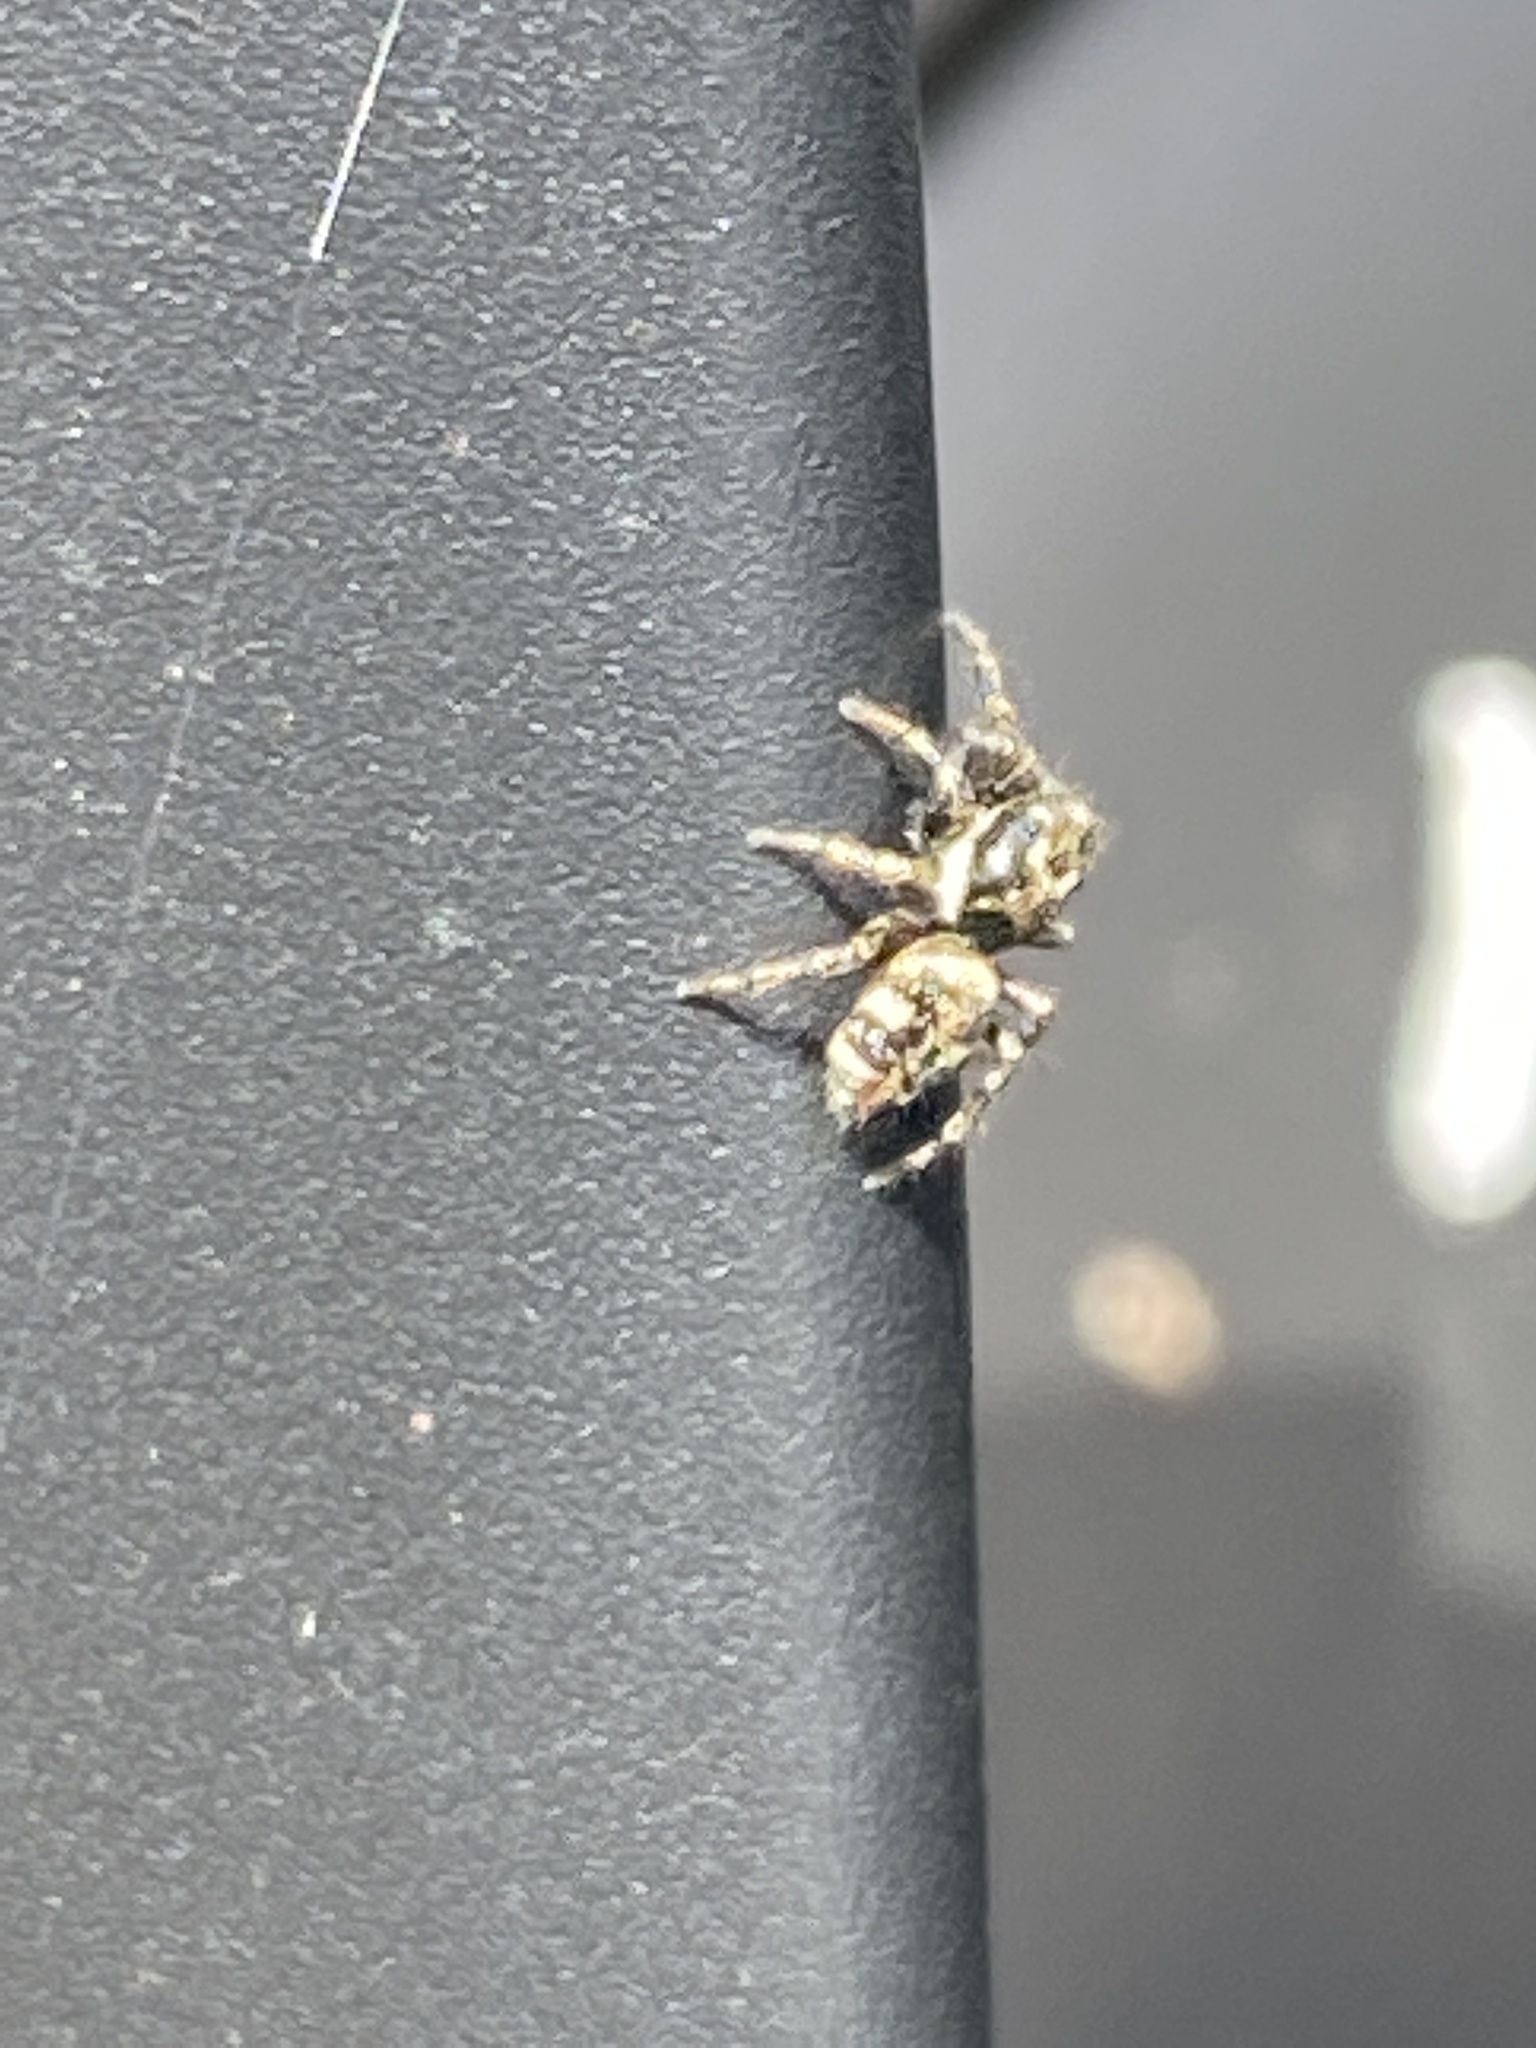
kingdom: Animalia
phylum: Arthropoda
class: Arachnida
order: Araneae
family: Salticidae
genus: Salticus
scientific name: Salticus scenicus
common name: Zebra jumper
